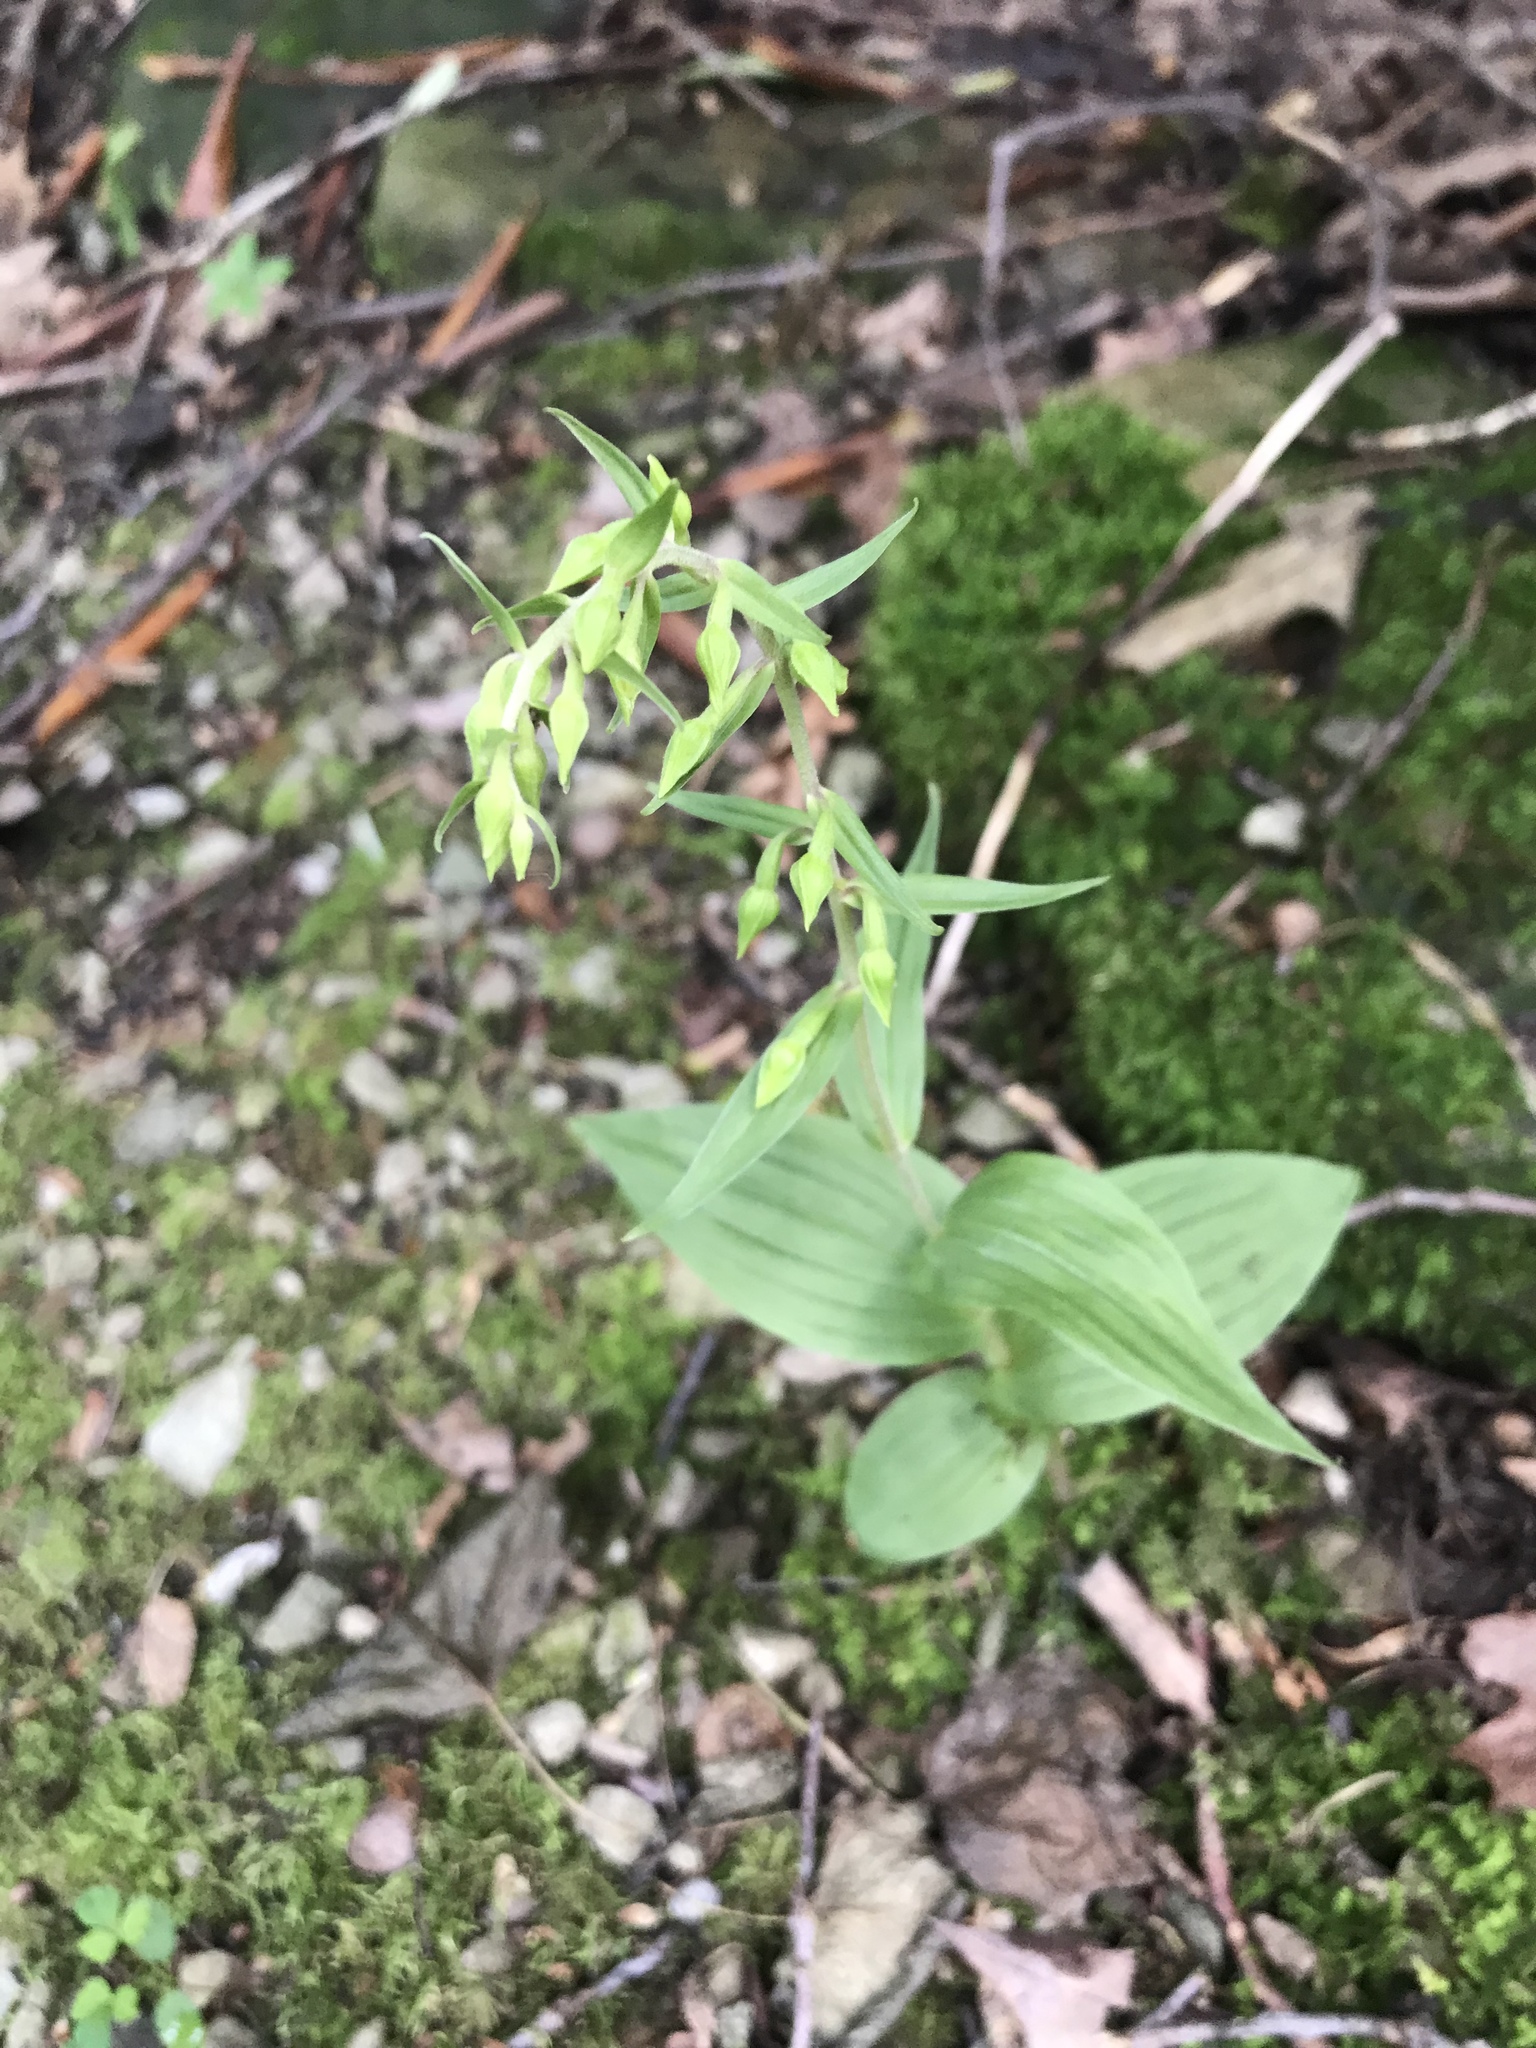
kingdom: Plantae
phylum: Tracheophyta
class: Liliopsida
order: Asparagales
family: Orchidaceae
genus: Epipactis
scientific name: Epipactis helleborine
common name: Broad-leaved helleborine
